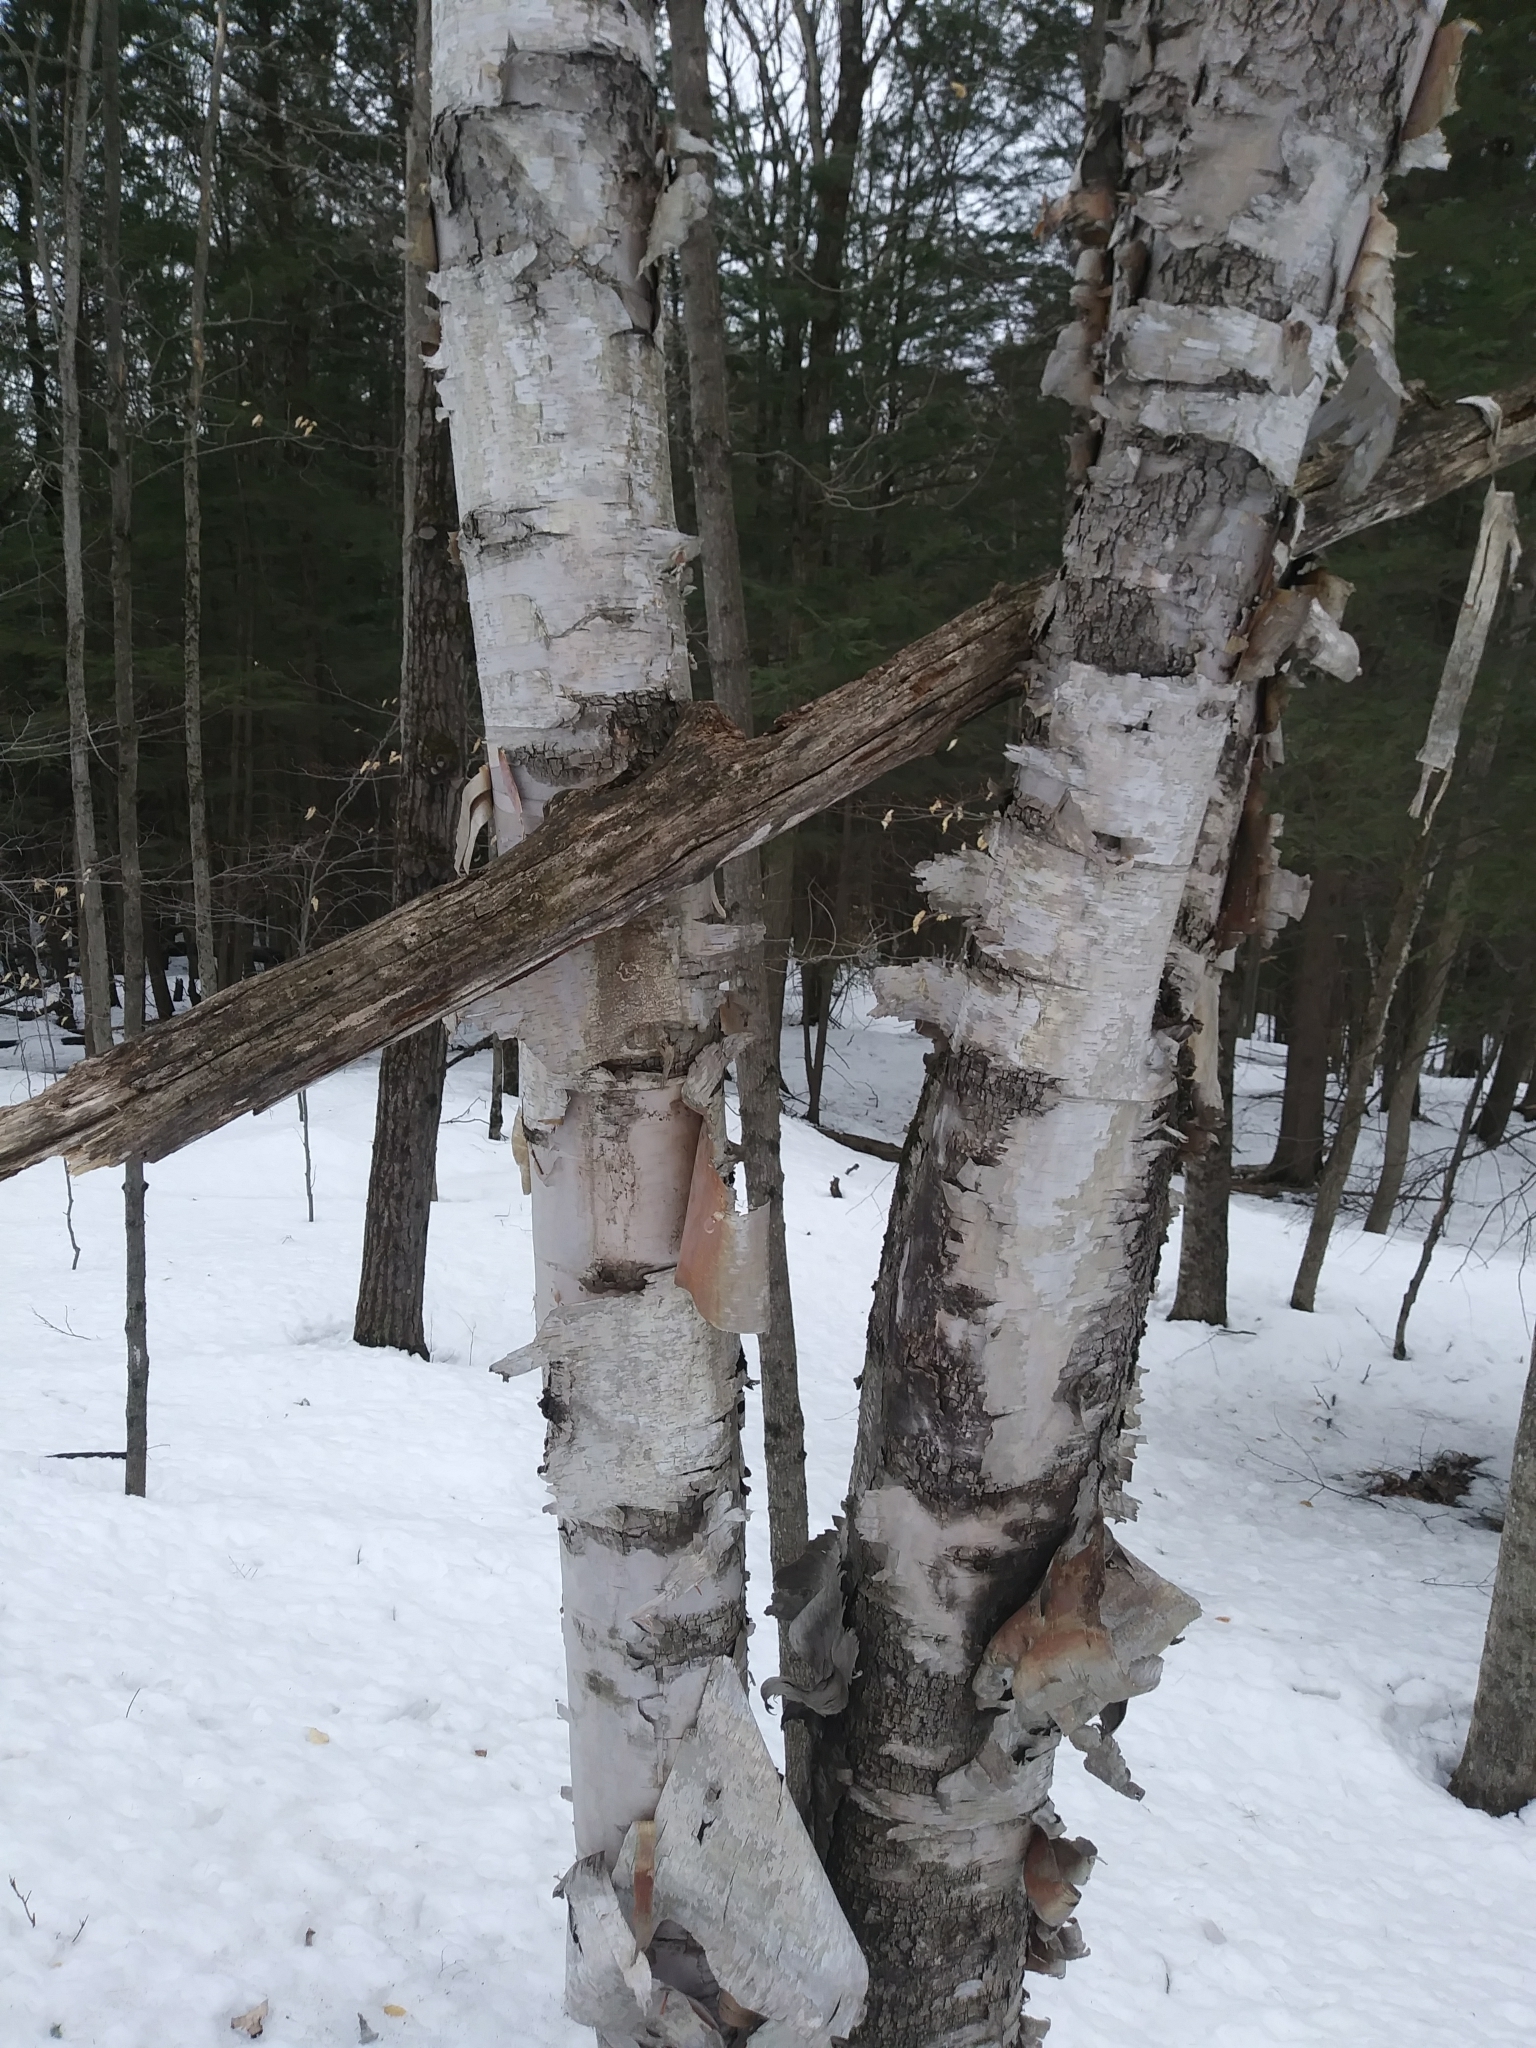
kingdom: Plantae
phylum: Tracheophyta
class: Magnoliopsida
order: Fagales
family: Betulaceae
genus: Betula
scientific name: Betula papyrifera
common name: Paper birch
